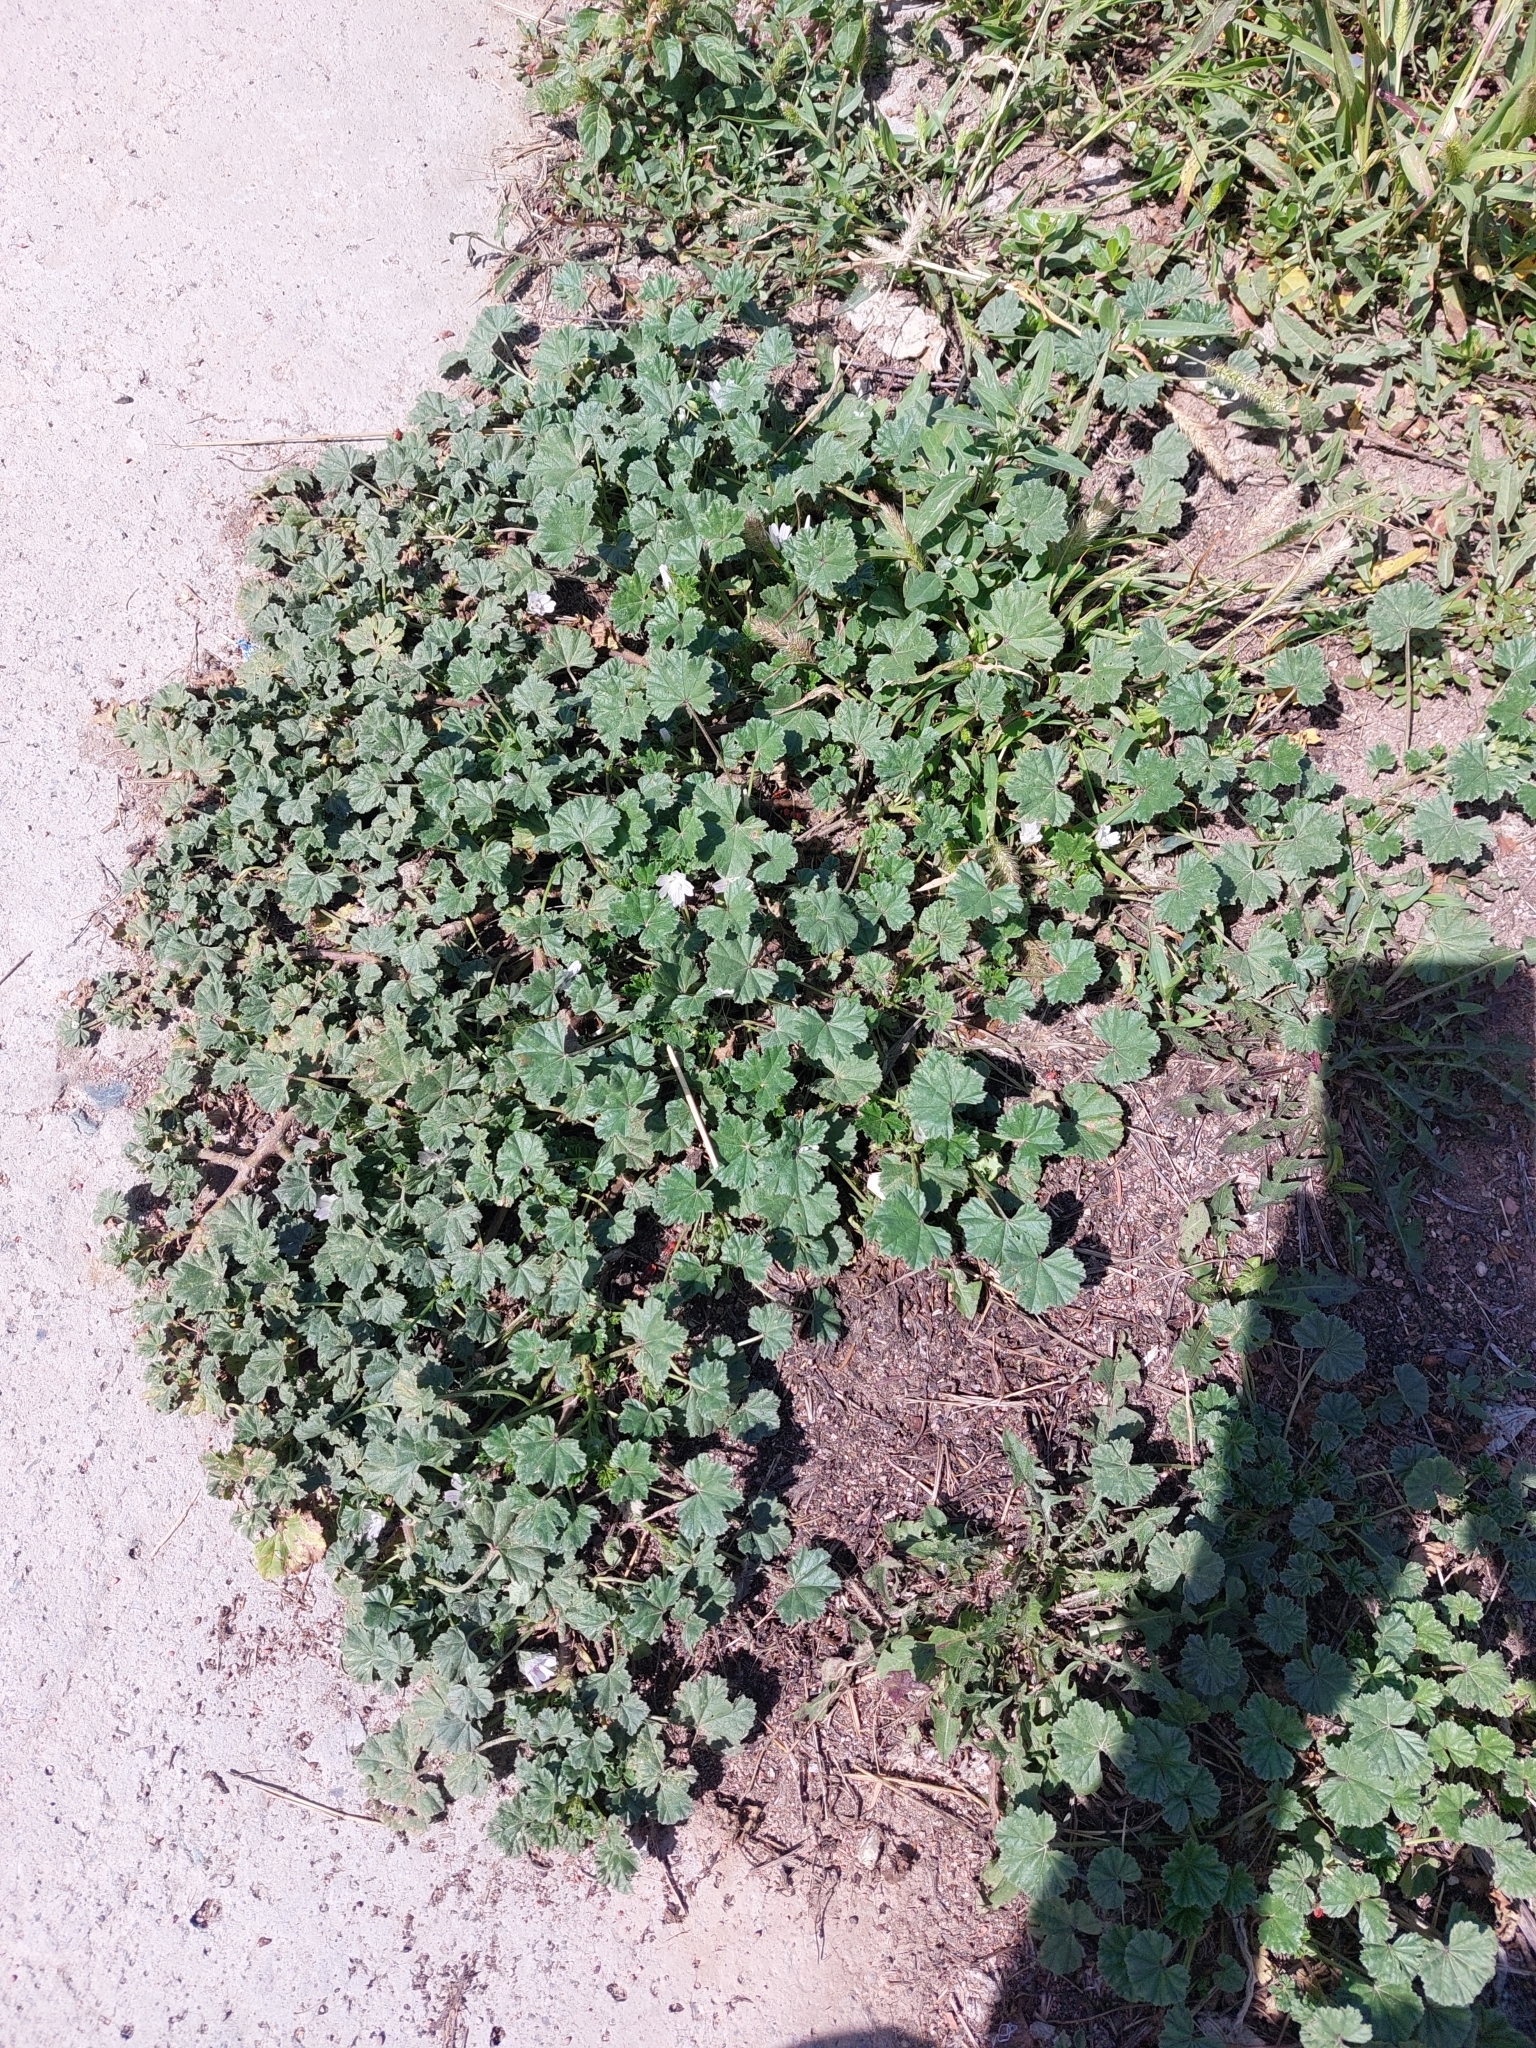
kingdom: Plantae
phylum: Tracheophyta
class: Magnoliopsida
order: Malvales
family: Malvaceae
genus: Malva
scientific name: Malva neglecta
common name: Common mallow
